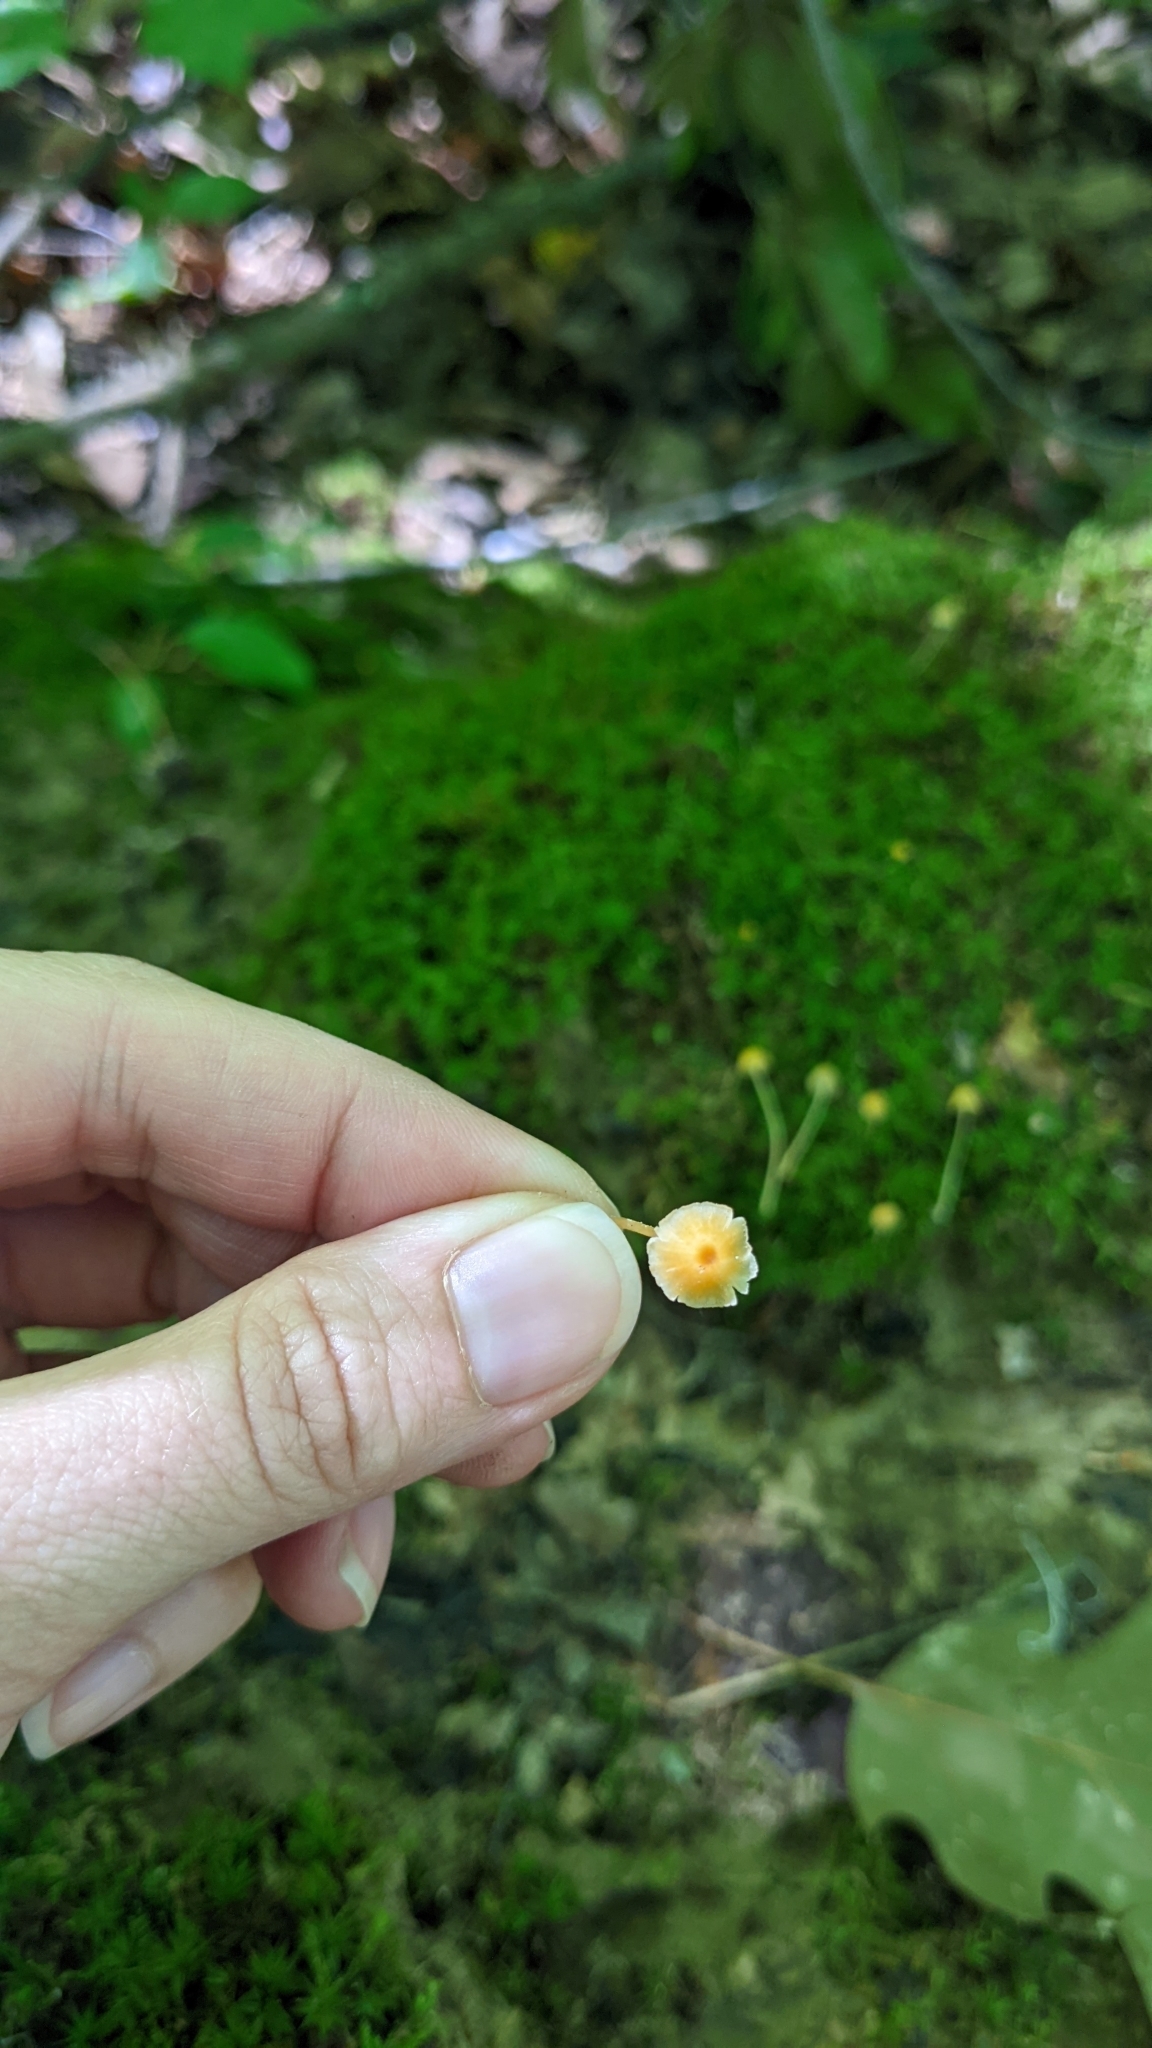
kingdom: Fungi
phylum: Basidiomycota
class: Agaricomycetes
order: Hymenochaetales
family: Rickenellaceae
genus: Rickenella
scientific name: Rickenella mellea
